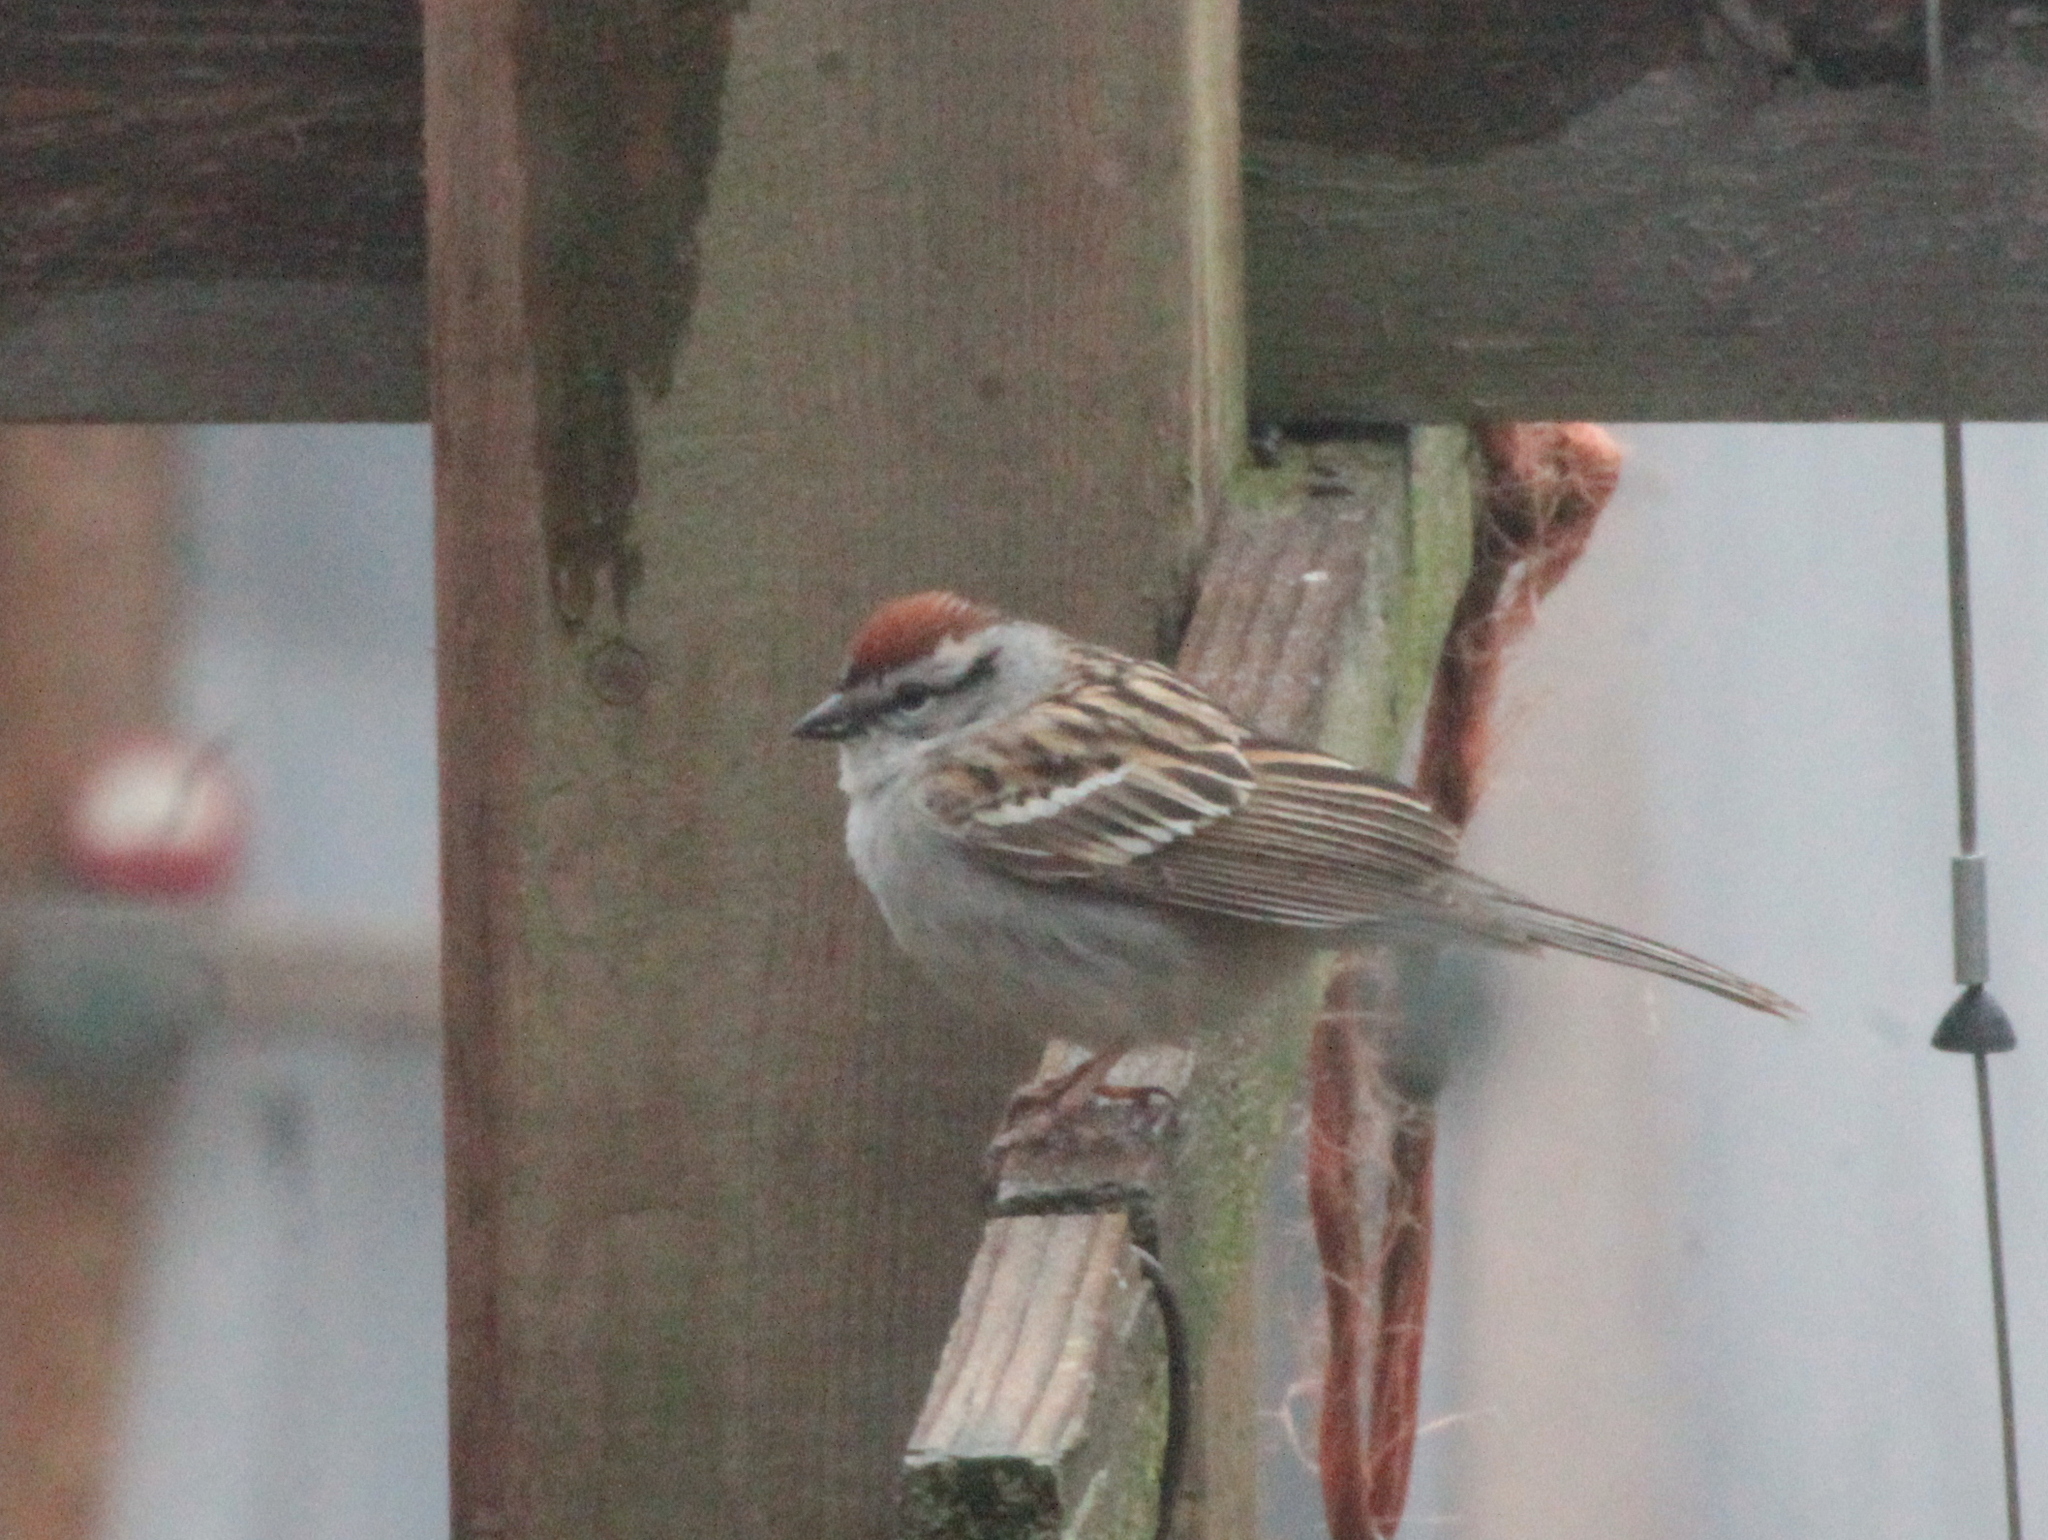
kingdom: Animalia
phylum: Chordata
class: Aves
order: Passeriformes
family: Passerellidae
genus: Spizella
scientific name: Spizella passerina
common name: Chipping sparrow
